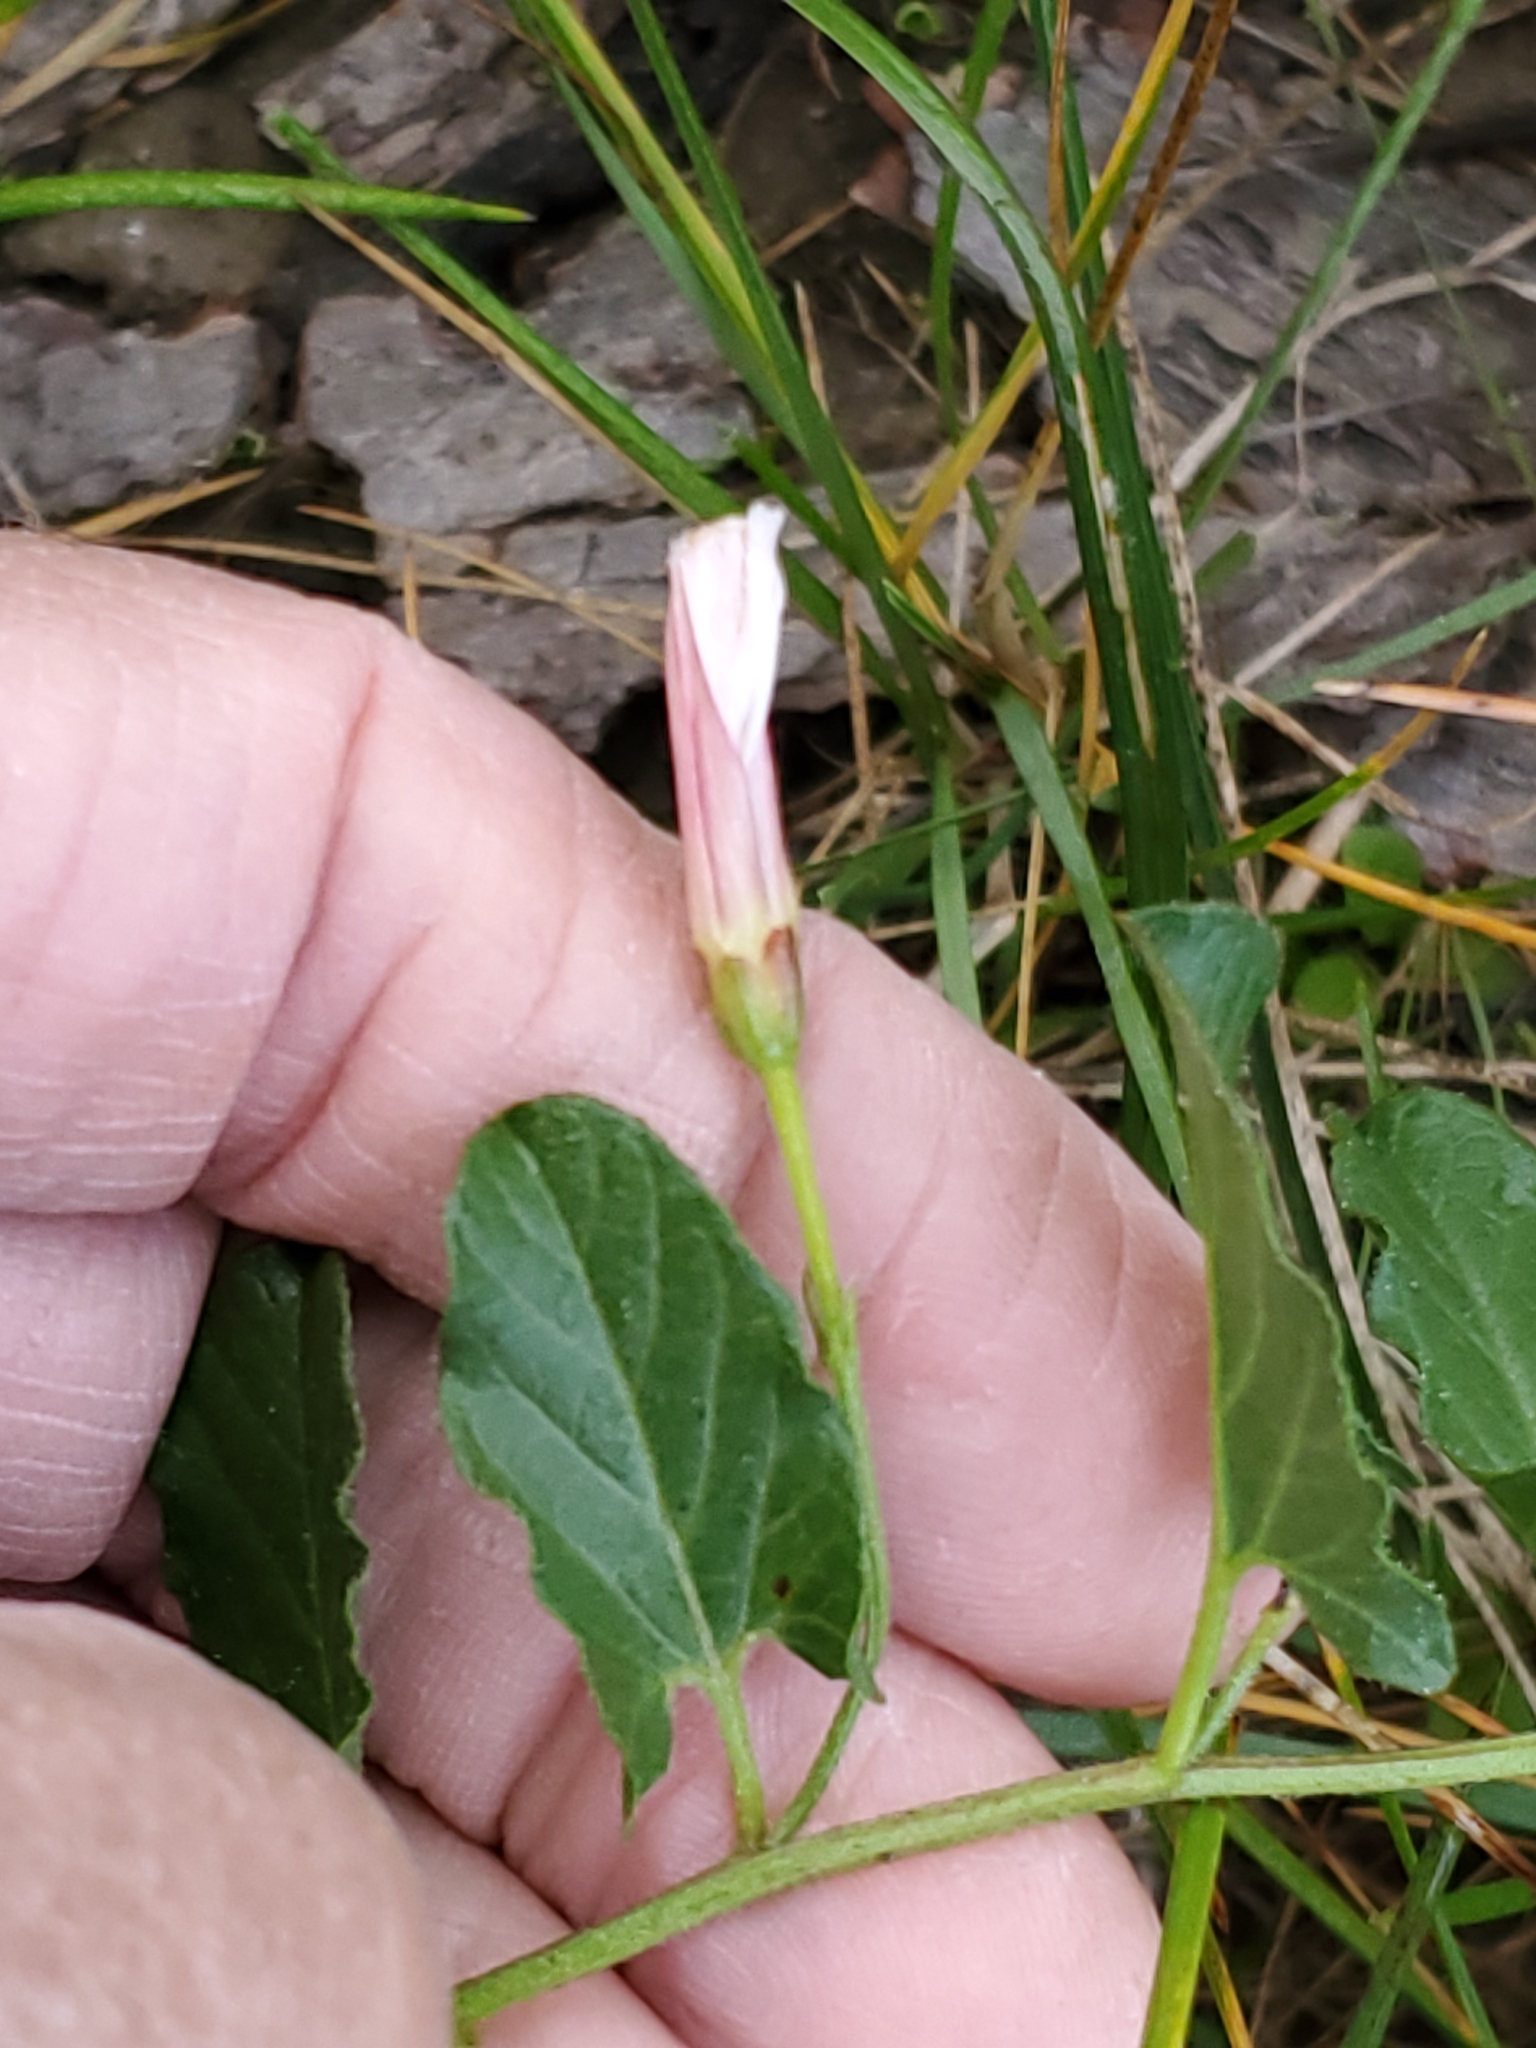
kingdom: Plantae
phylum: Tracheophyta
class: Magnoliopsida
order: Solanales
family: Convolvulaceae
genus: Convolvulus
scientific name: Convolvulus arvensis
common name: Field bindweed
